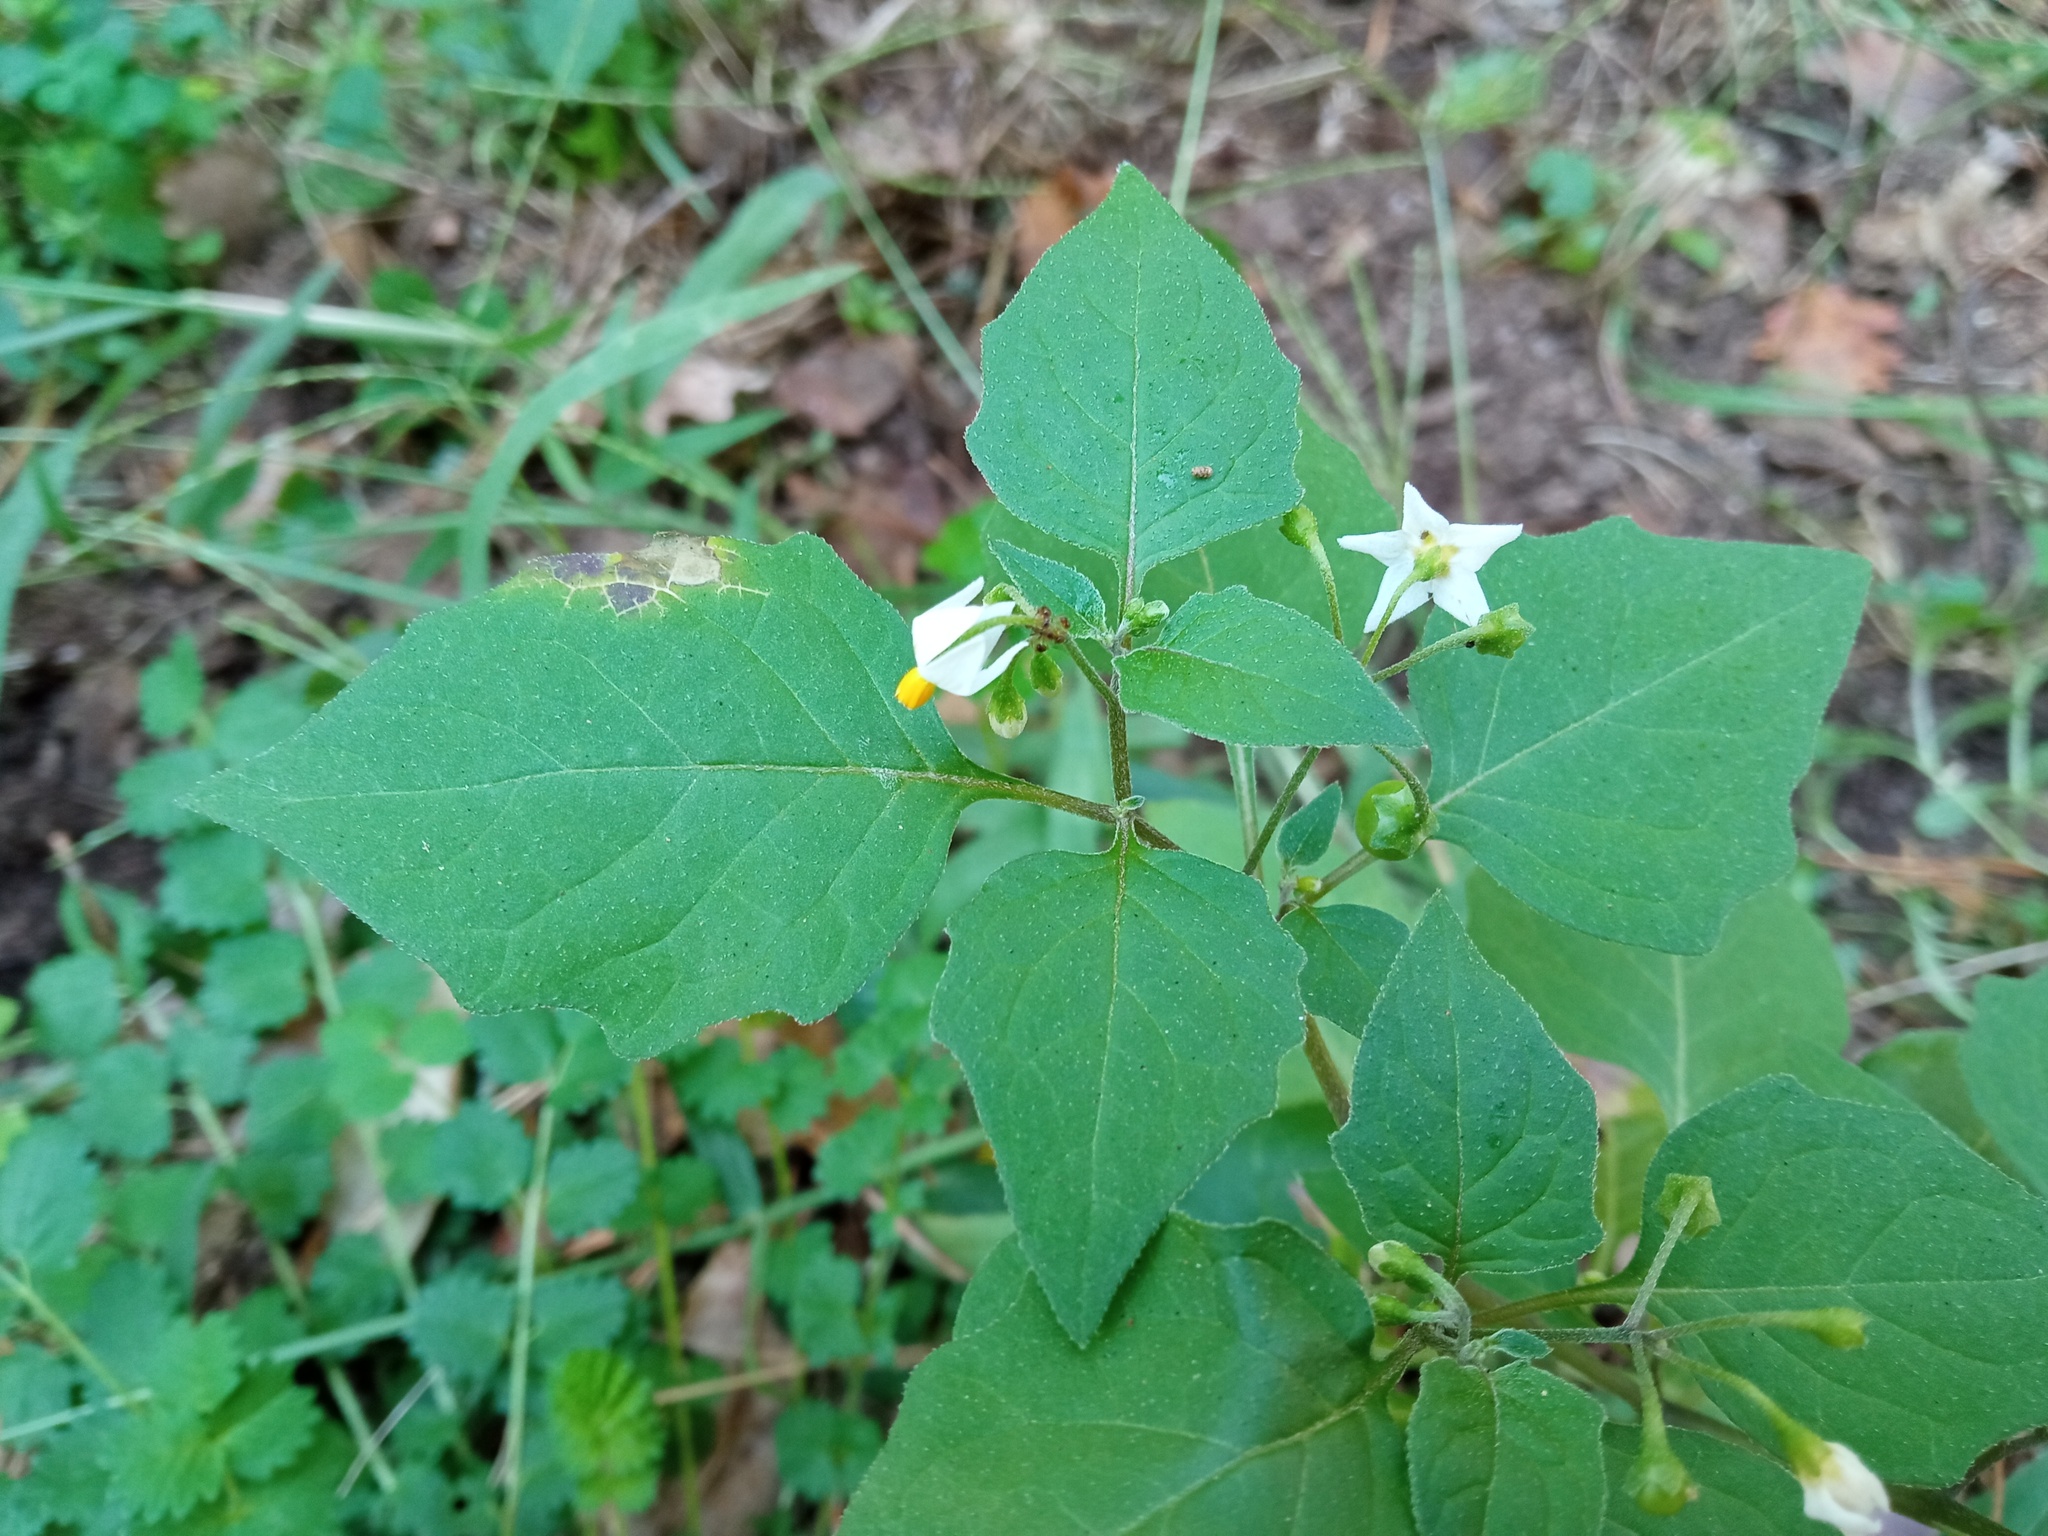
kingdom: Plantae
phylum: Tracheophyta
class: Magnoliopsida
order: Solanales
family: Solanaceae
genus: Solanum
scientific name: Solanum nigrum
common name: Black nightshade
